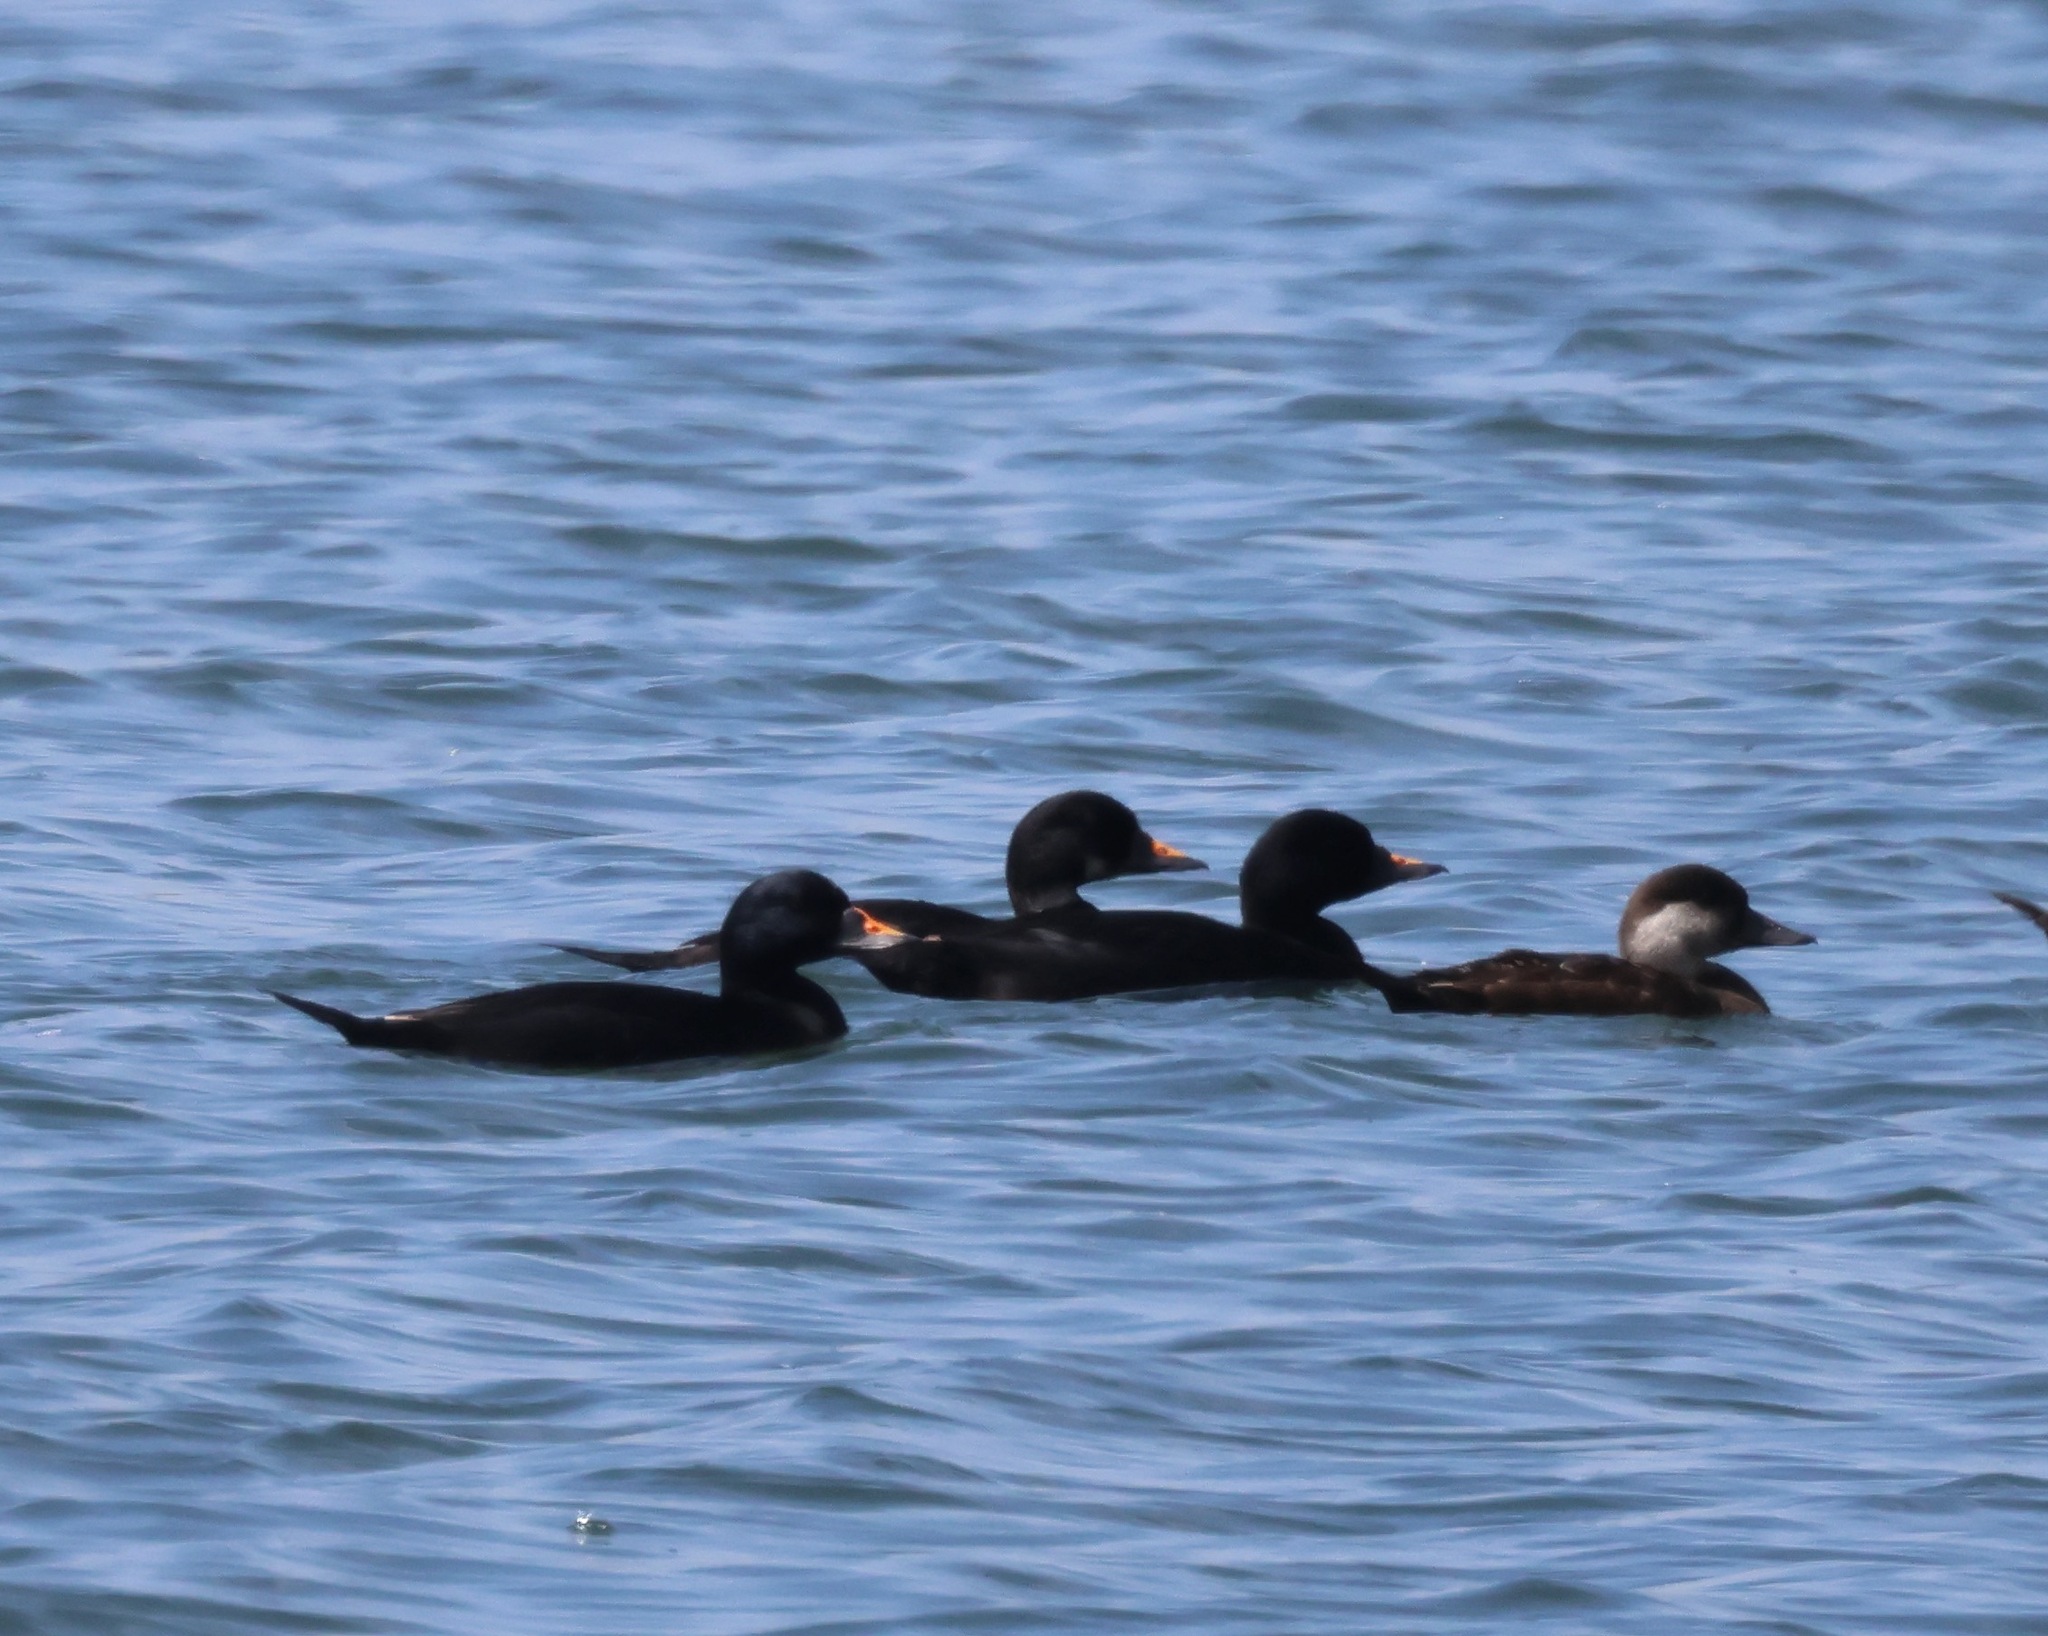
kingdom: Animalia
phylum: Chordata
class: Aves
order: Anseriformes
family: Anatidae
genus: Melanitta
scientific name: Melanitta nigra
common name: Common scoter
